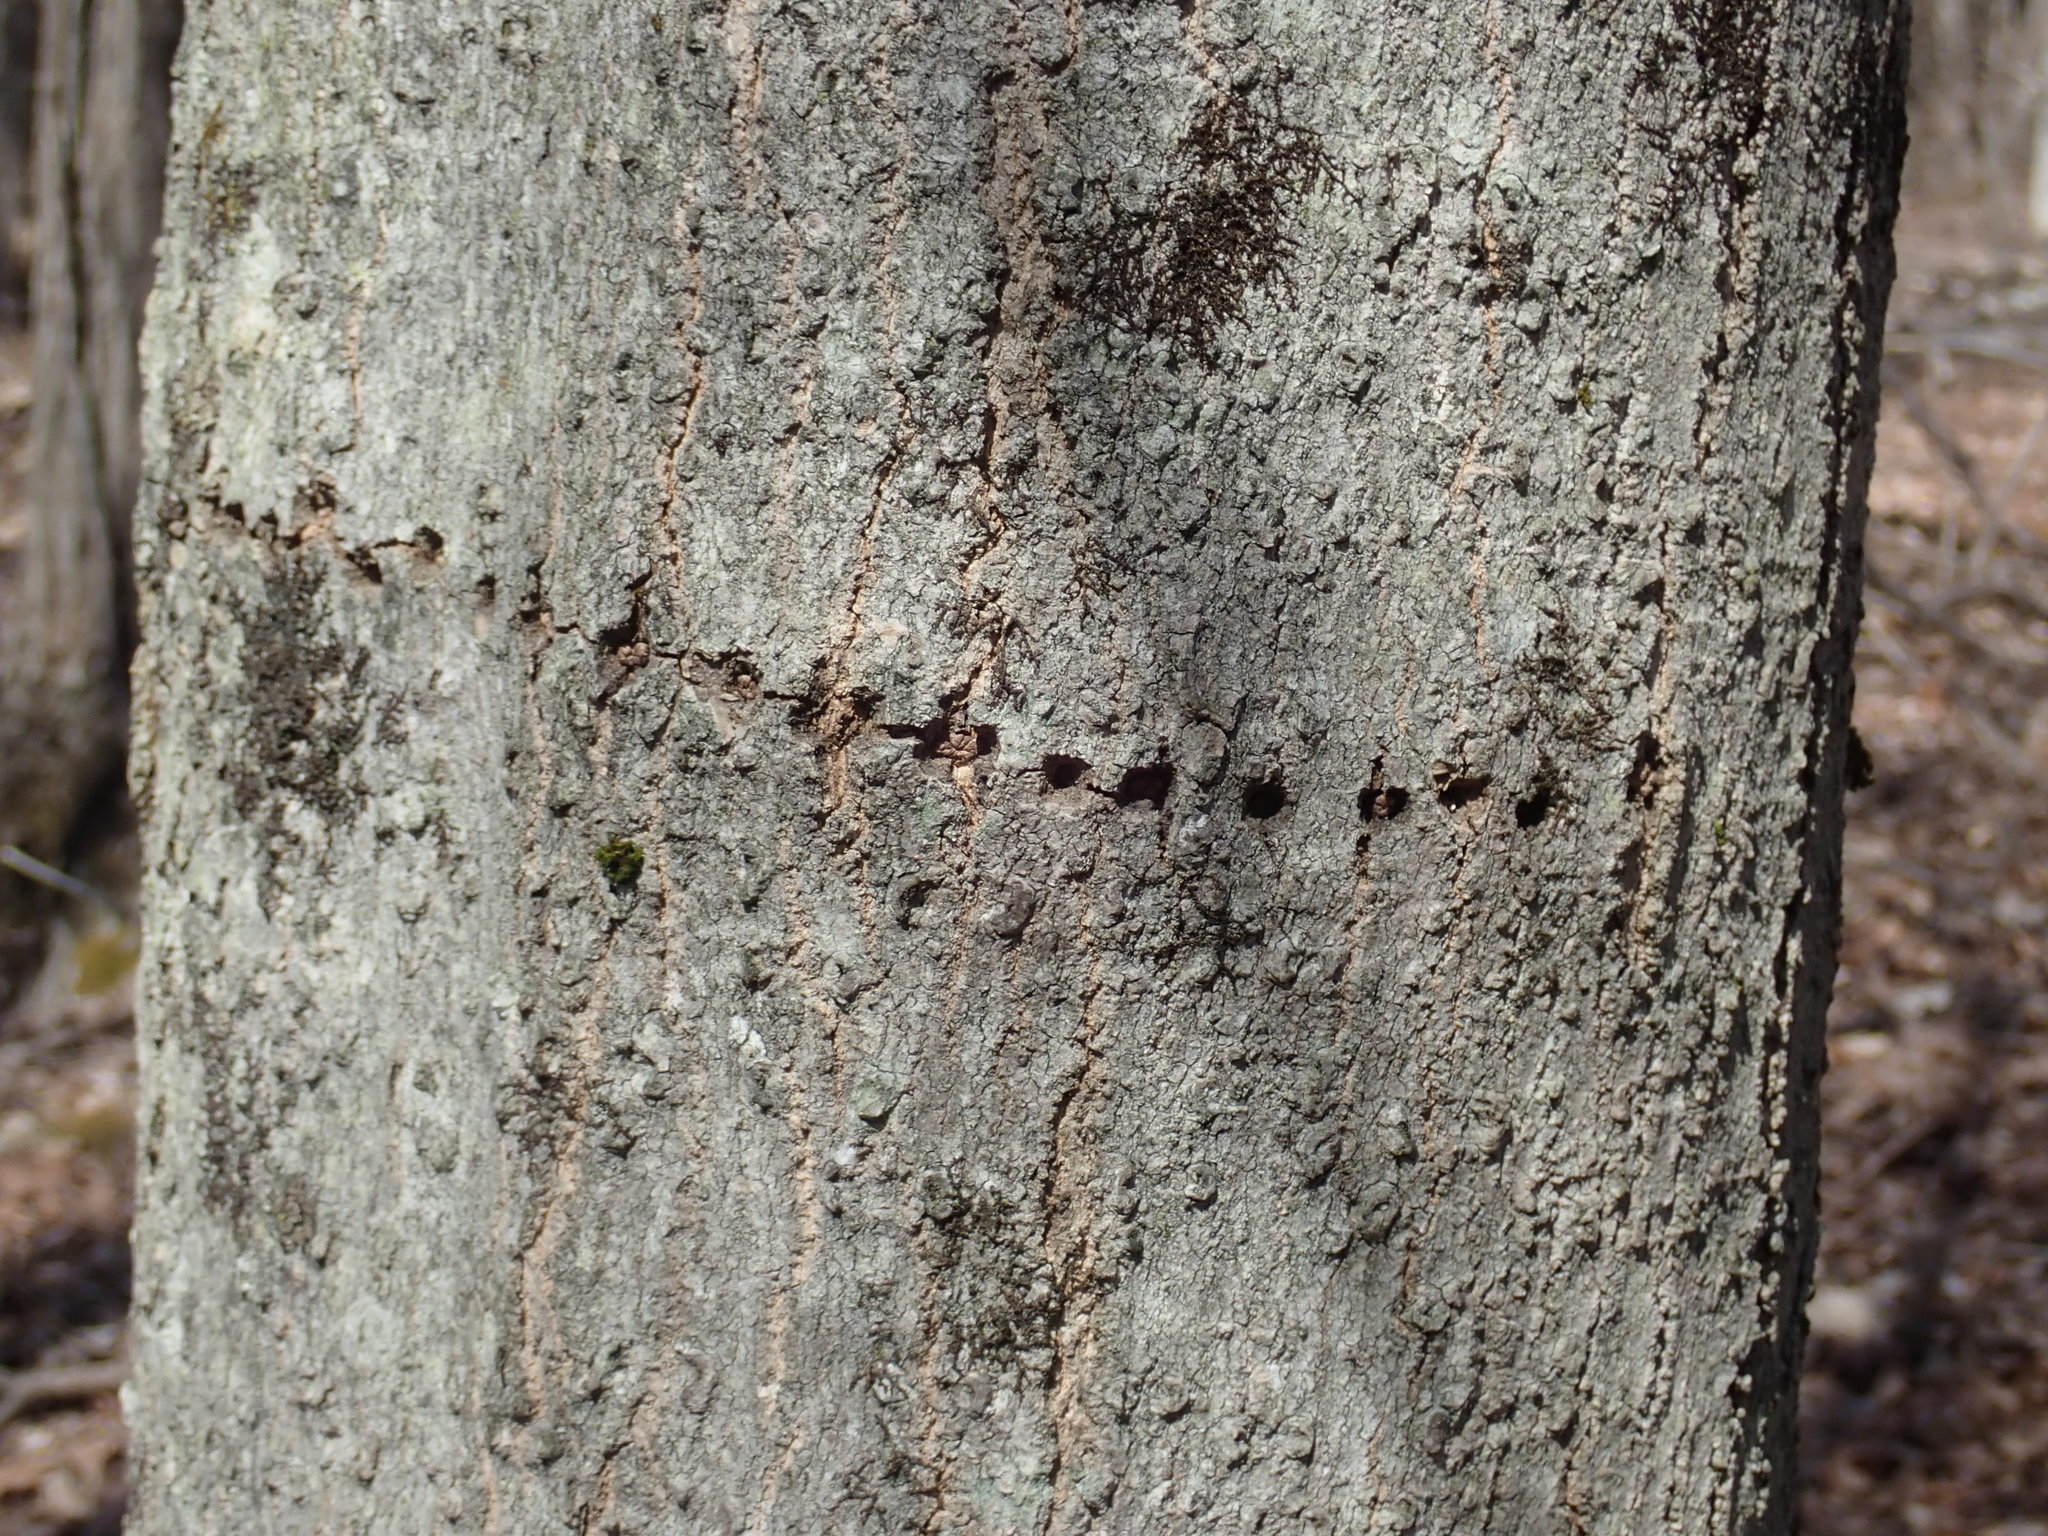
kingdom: Animalia
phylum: Chordata
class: Aves
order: Piciformes
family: Picidae
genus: Sphyrapicus
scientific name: Sphyrapicus varius
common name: Yellow-bellied sapsucker
